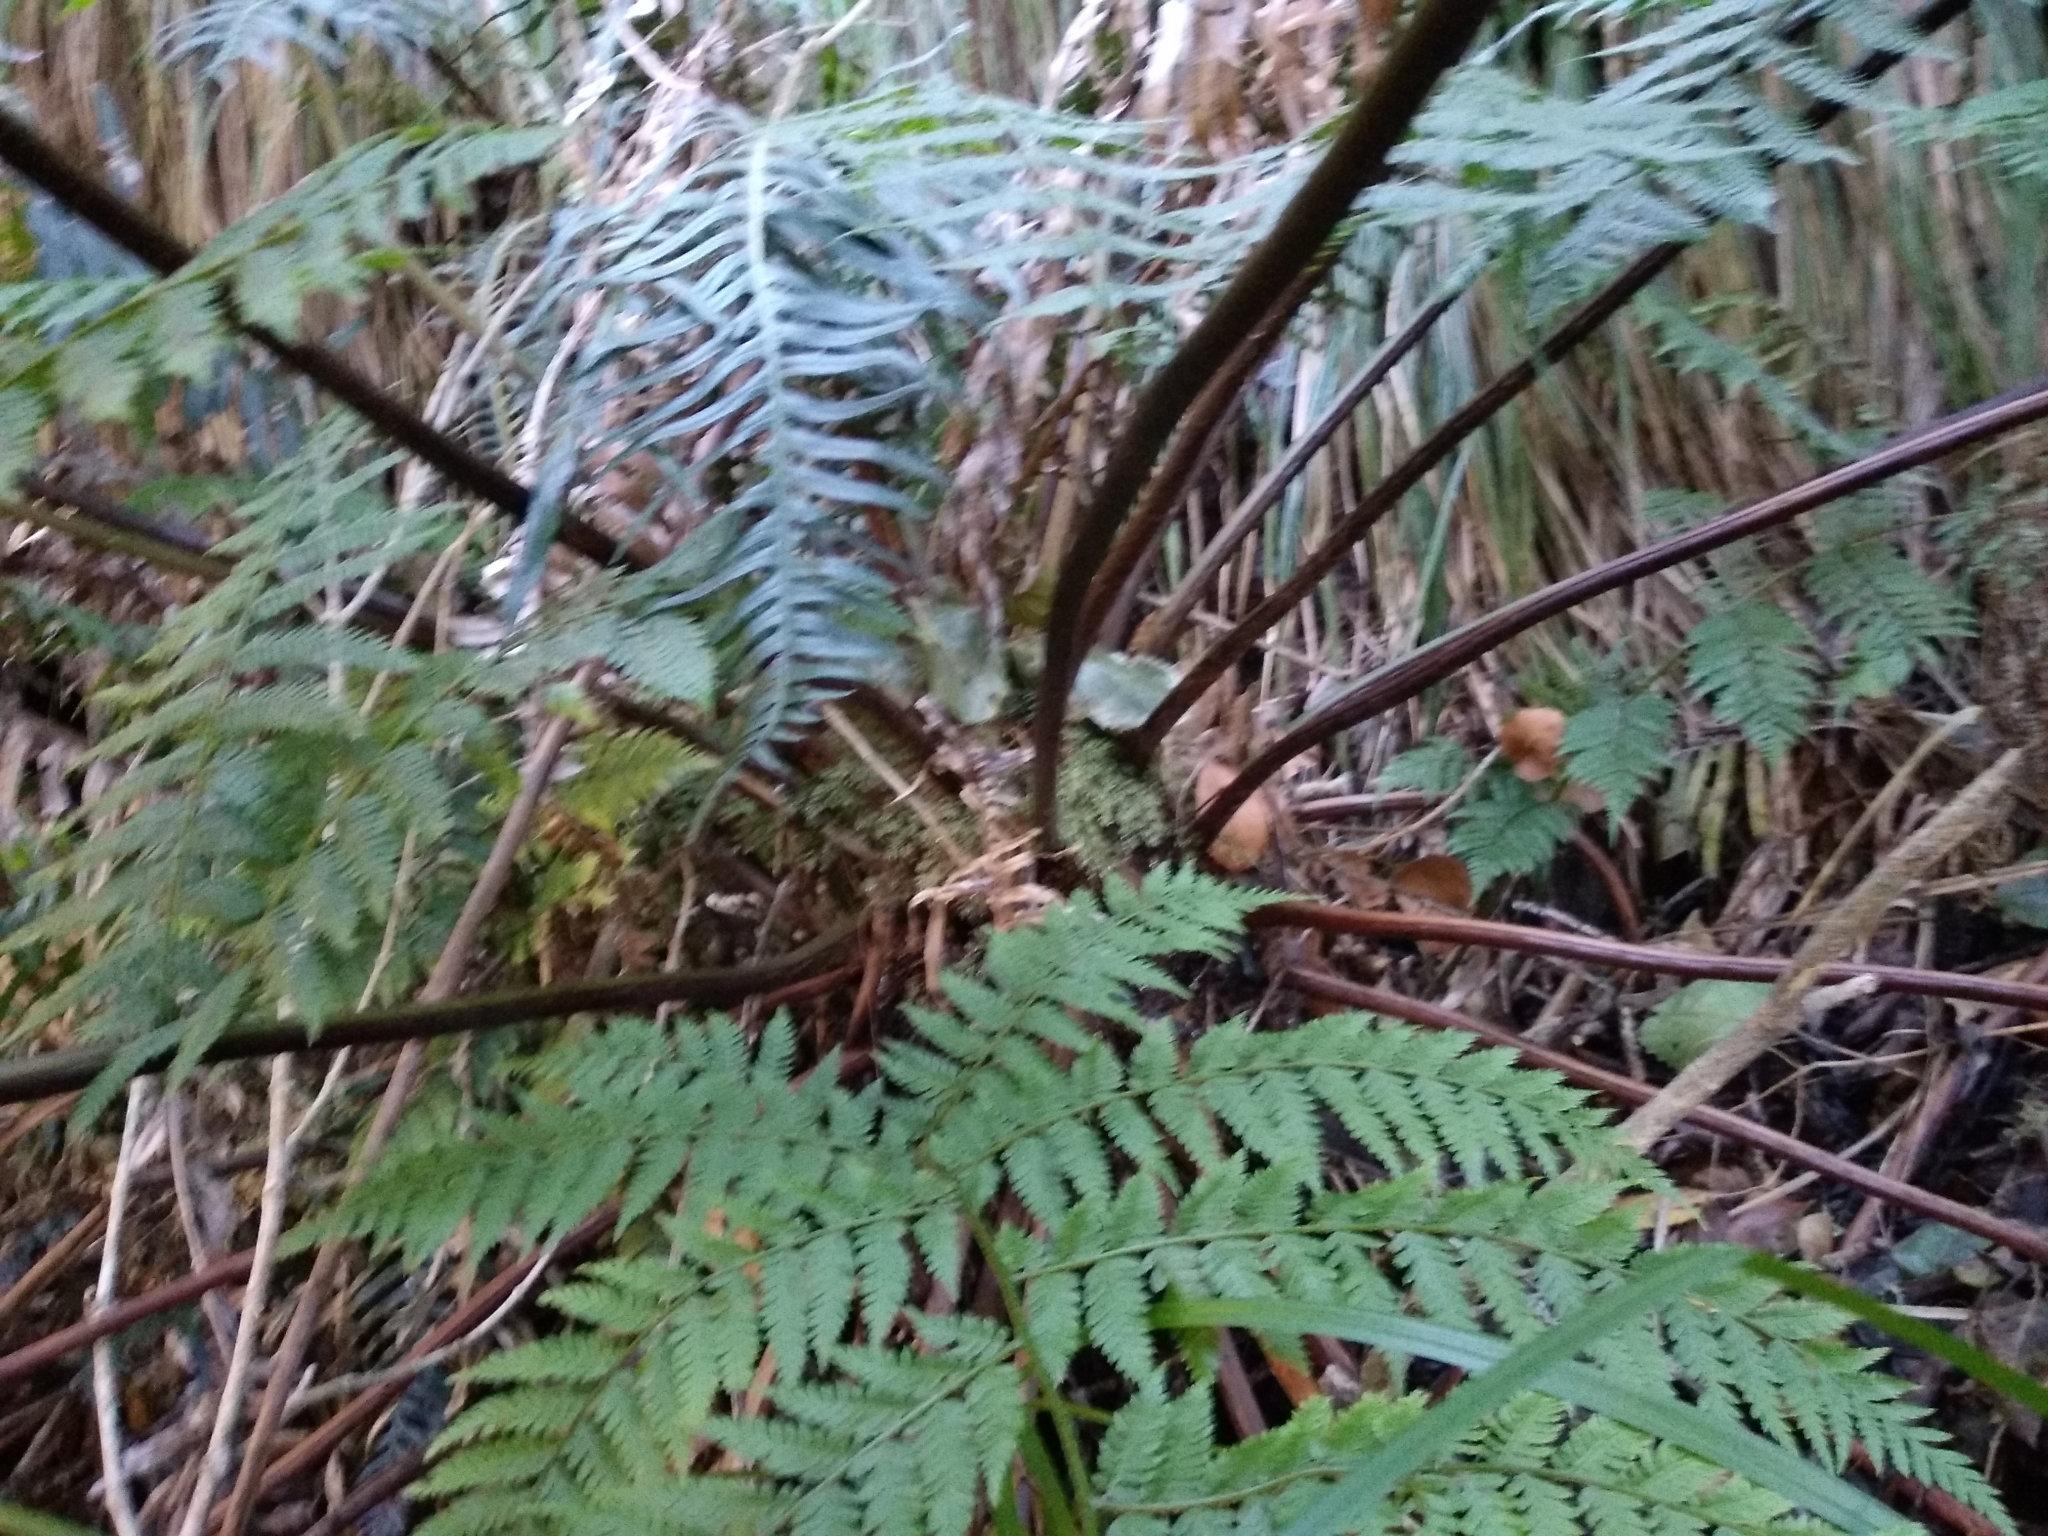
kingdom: Plantae
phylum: Tracheophyta
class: Polypodiopsida
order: Cyatheales
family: Cyatheaceae
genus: Gymnosphaera
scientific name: Gymnosphaera capensis
